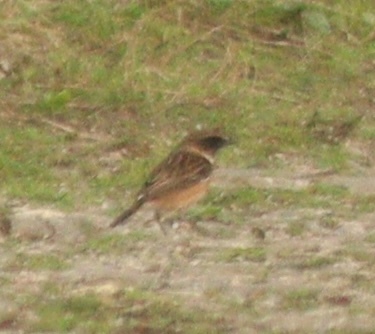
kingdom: Animalia
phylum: Chordata
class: Aves
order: Passeriformes
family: Muscicapidae
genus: Saxicola
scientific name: Saxicola rubicola
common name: European stonechat
